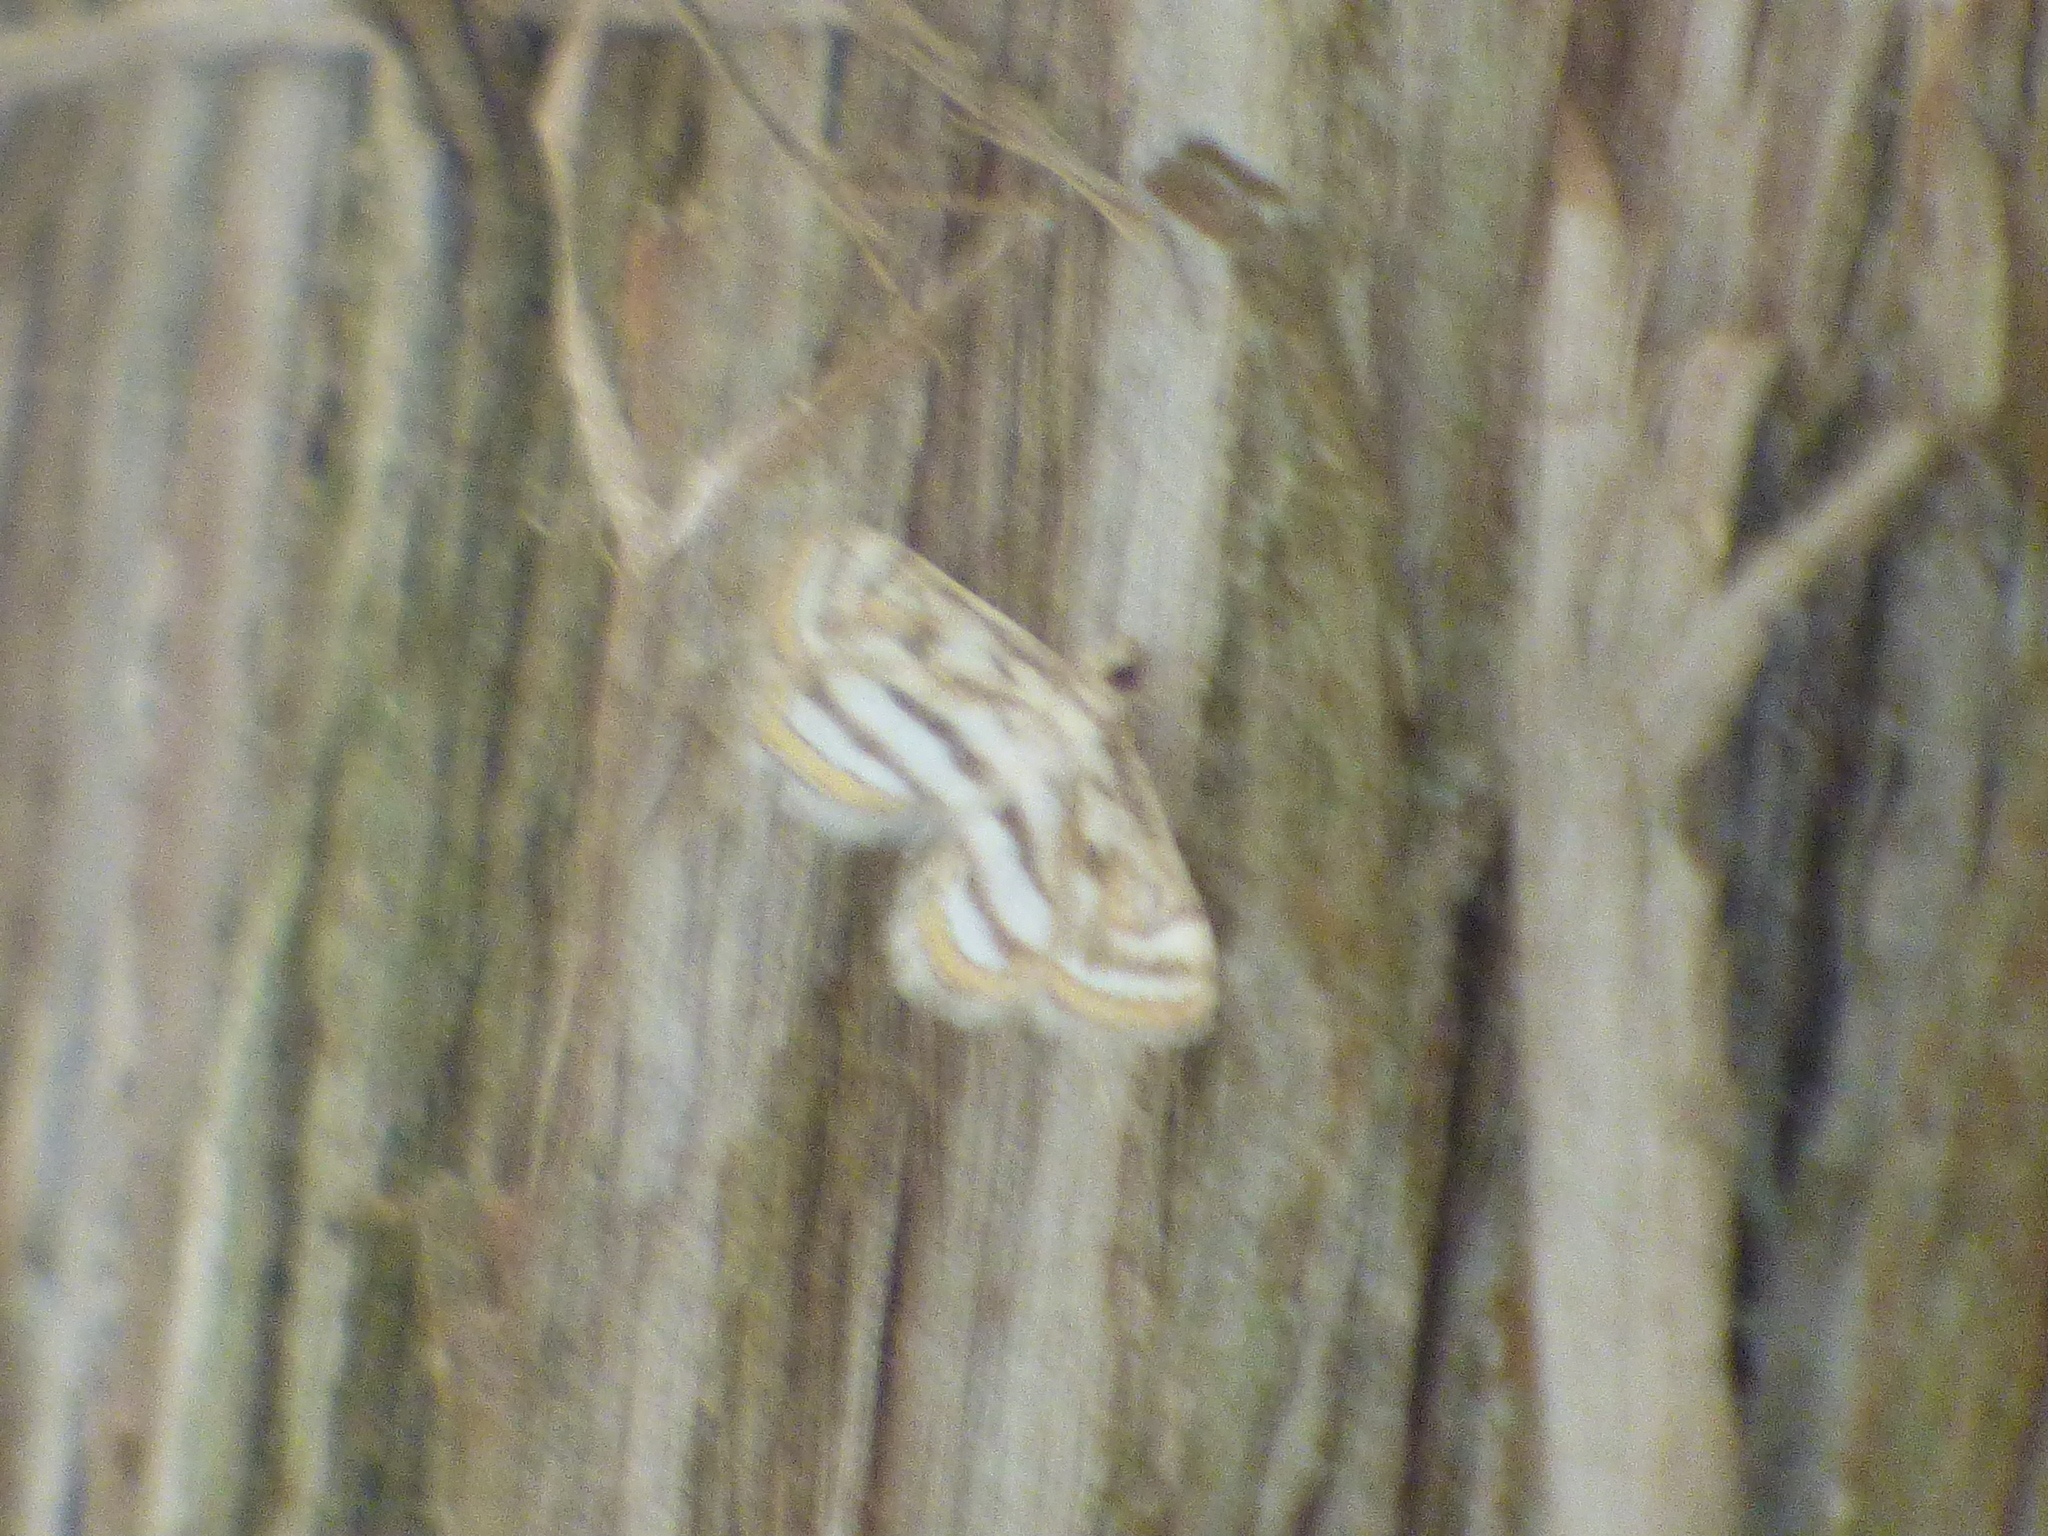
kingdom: Animalia
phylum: Arthropoda
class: Insecta
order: Lepidoptera
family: Crambidae
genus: Parapoynx
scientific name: Parapoynx badiusalis
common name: Chestnut-marked pondweed moth
